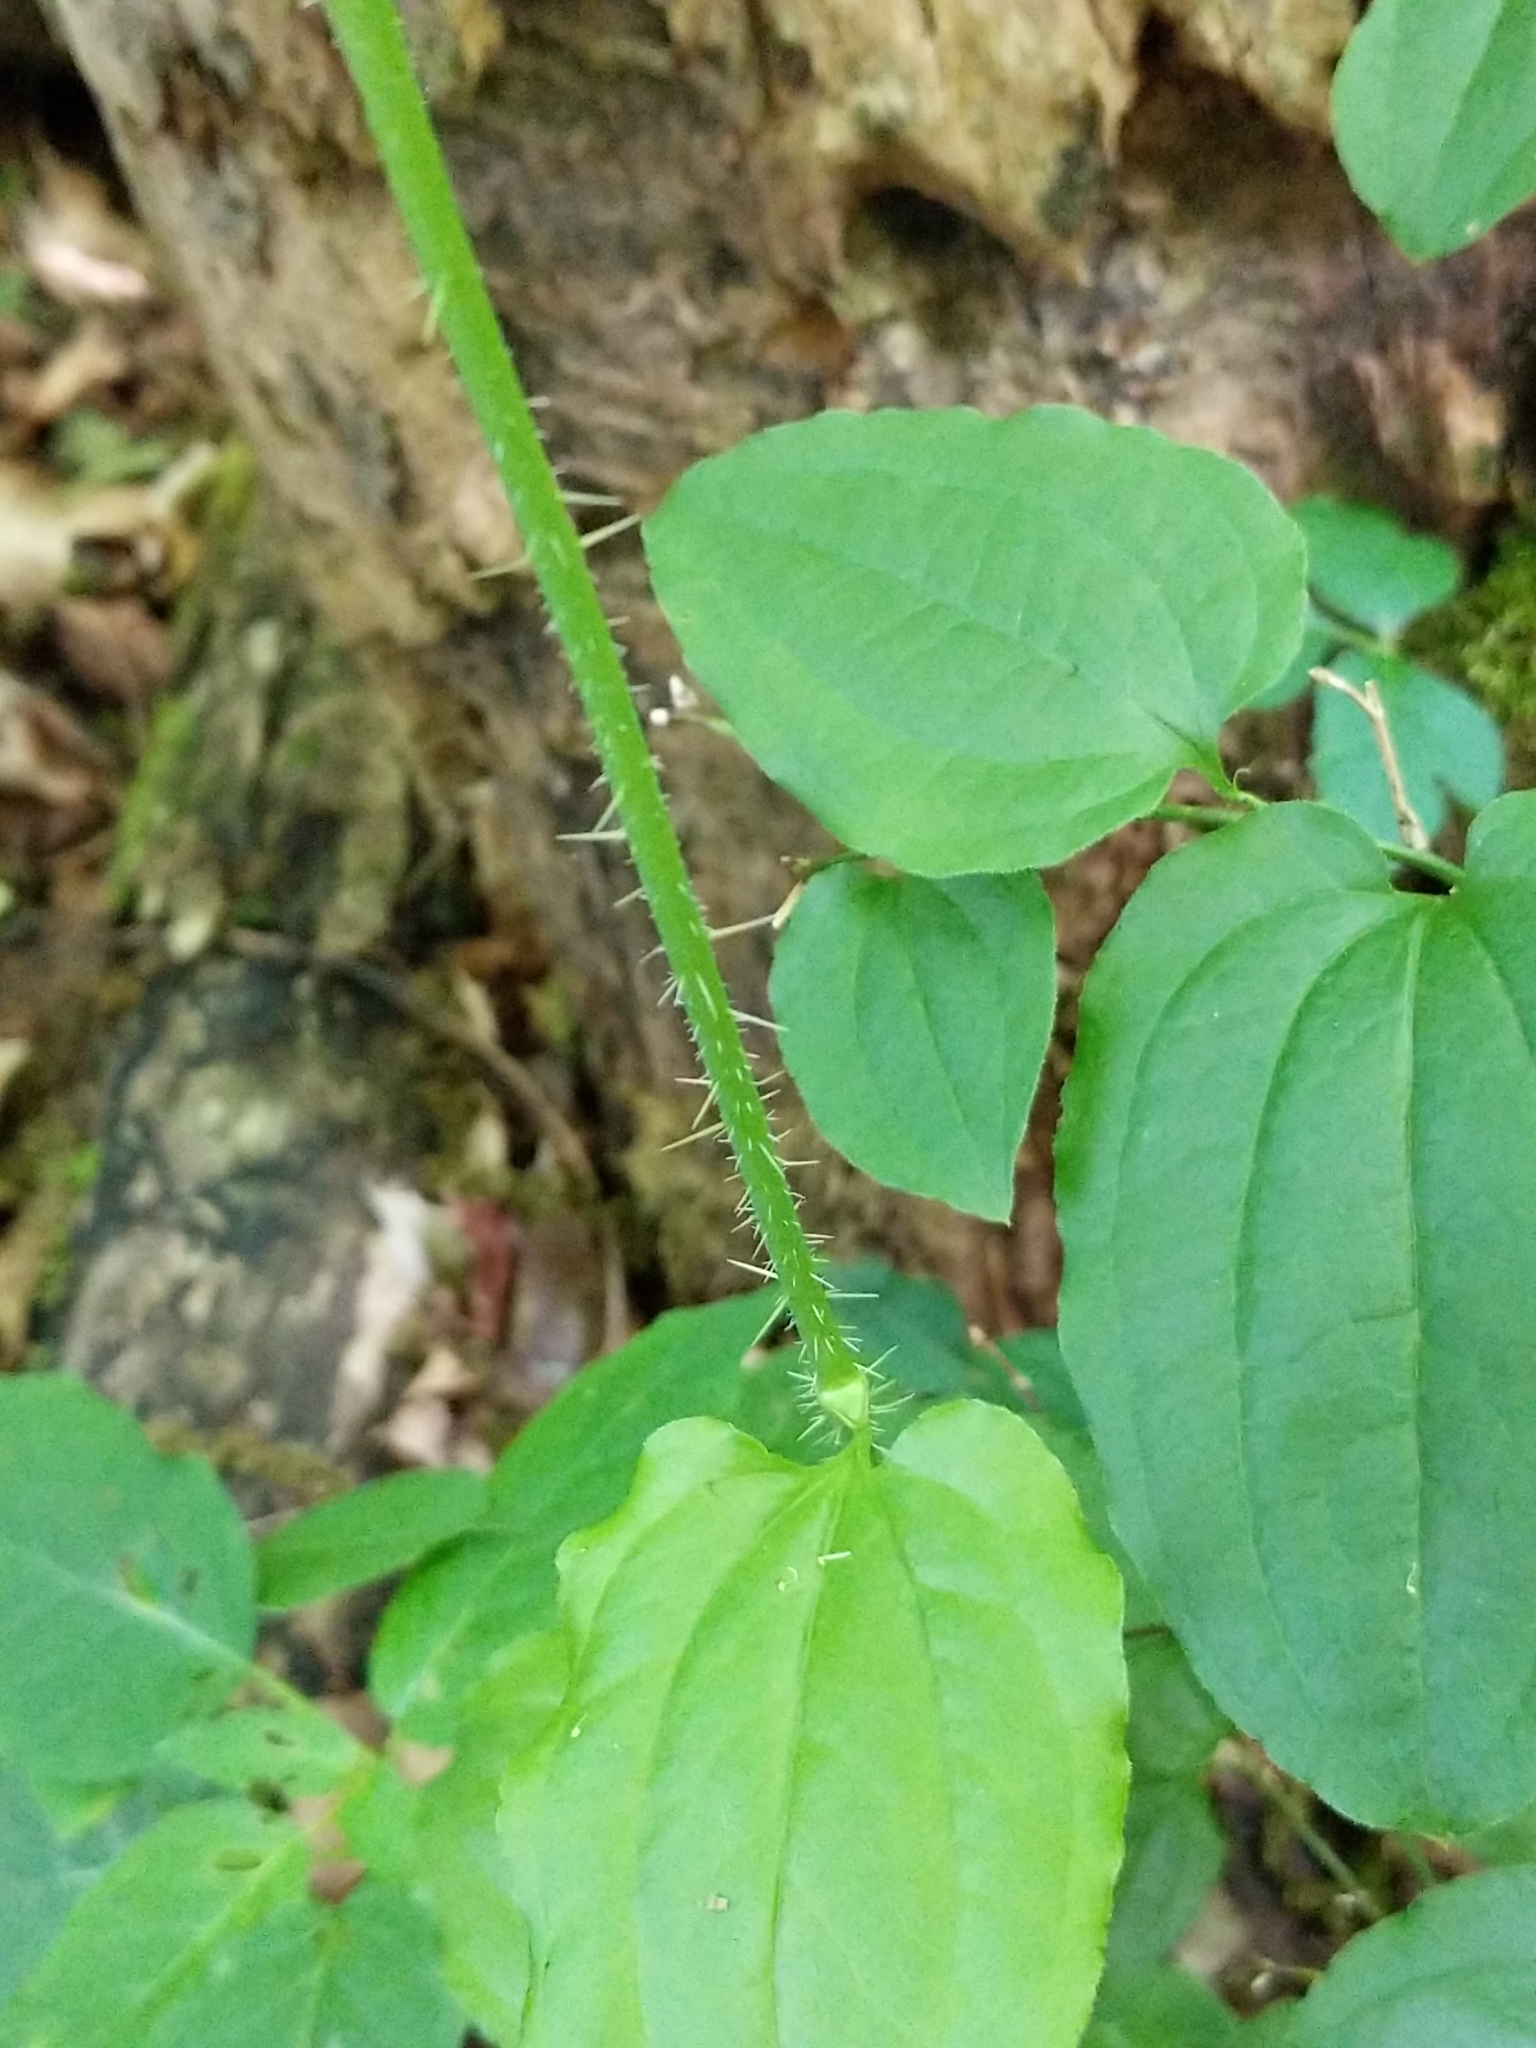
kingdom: Plantae
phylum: Tracheophyta
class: Liliopsida
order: Liliales
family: Smilacaceae
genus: Smilax
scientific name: Smilax tamnoides
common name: Hellfetter
